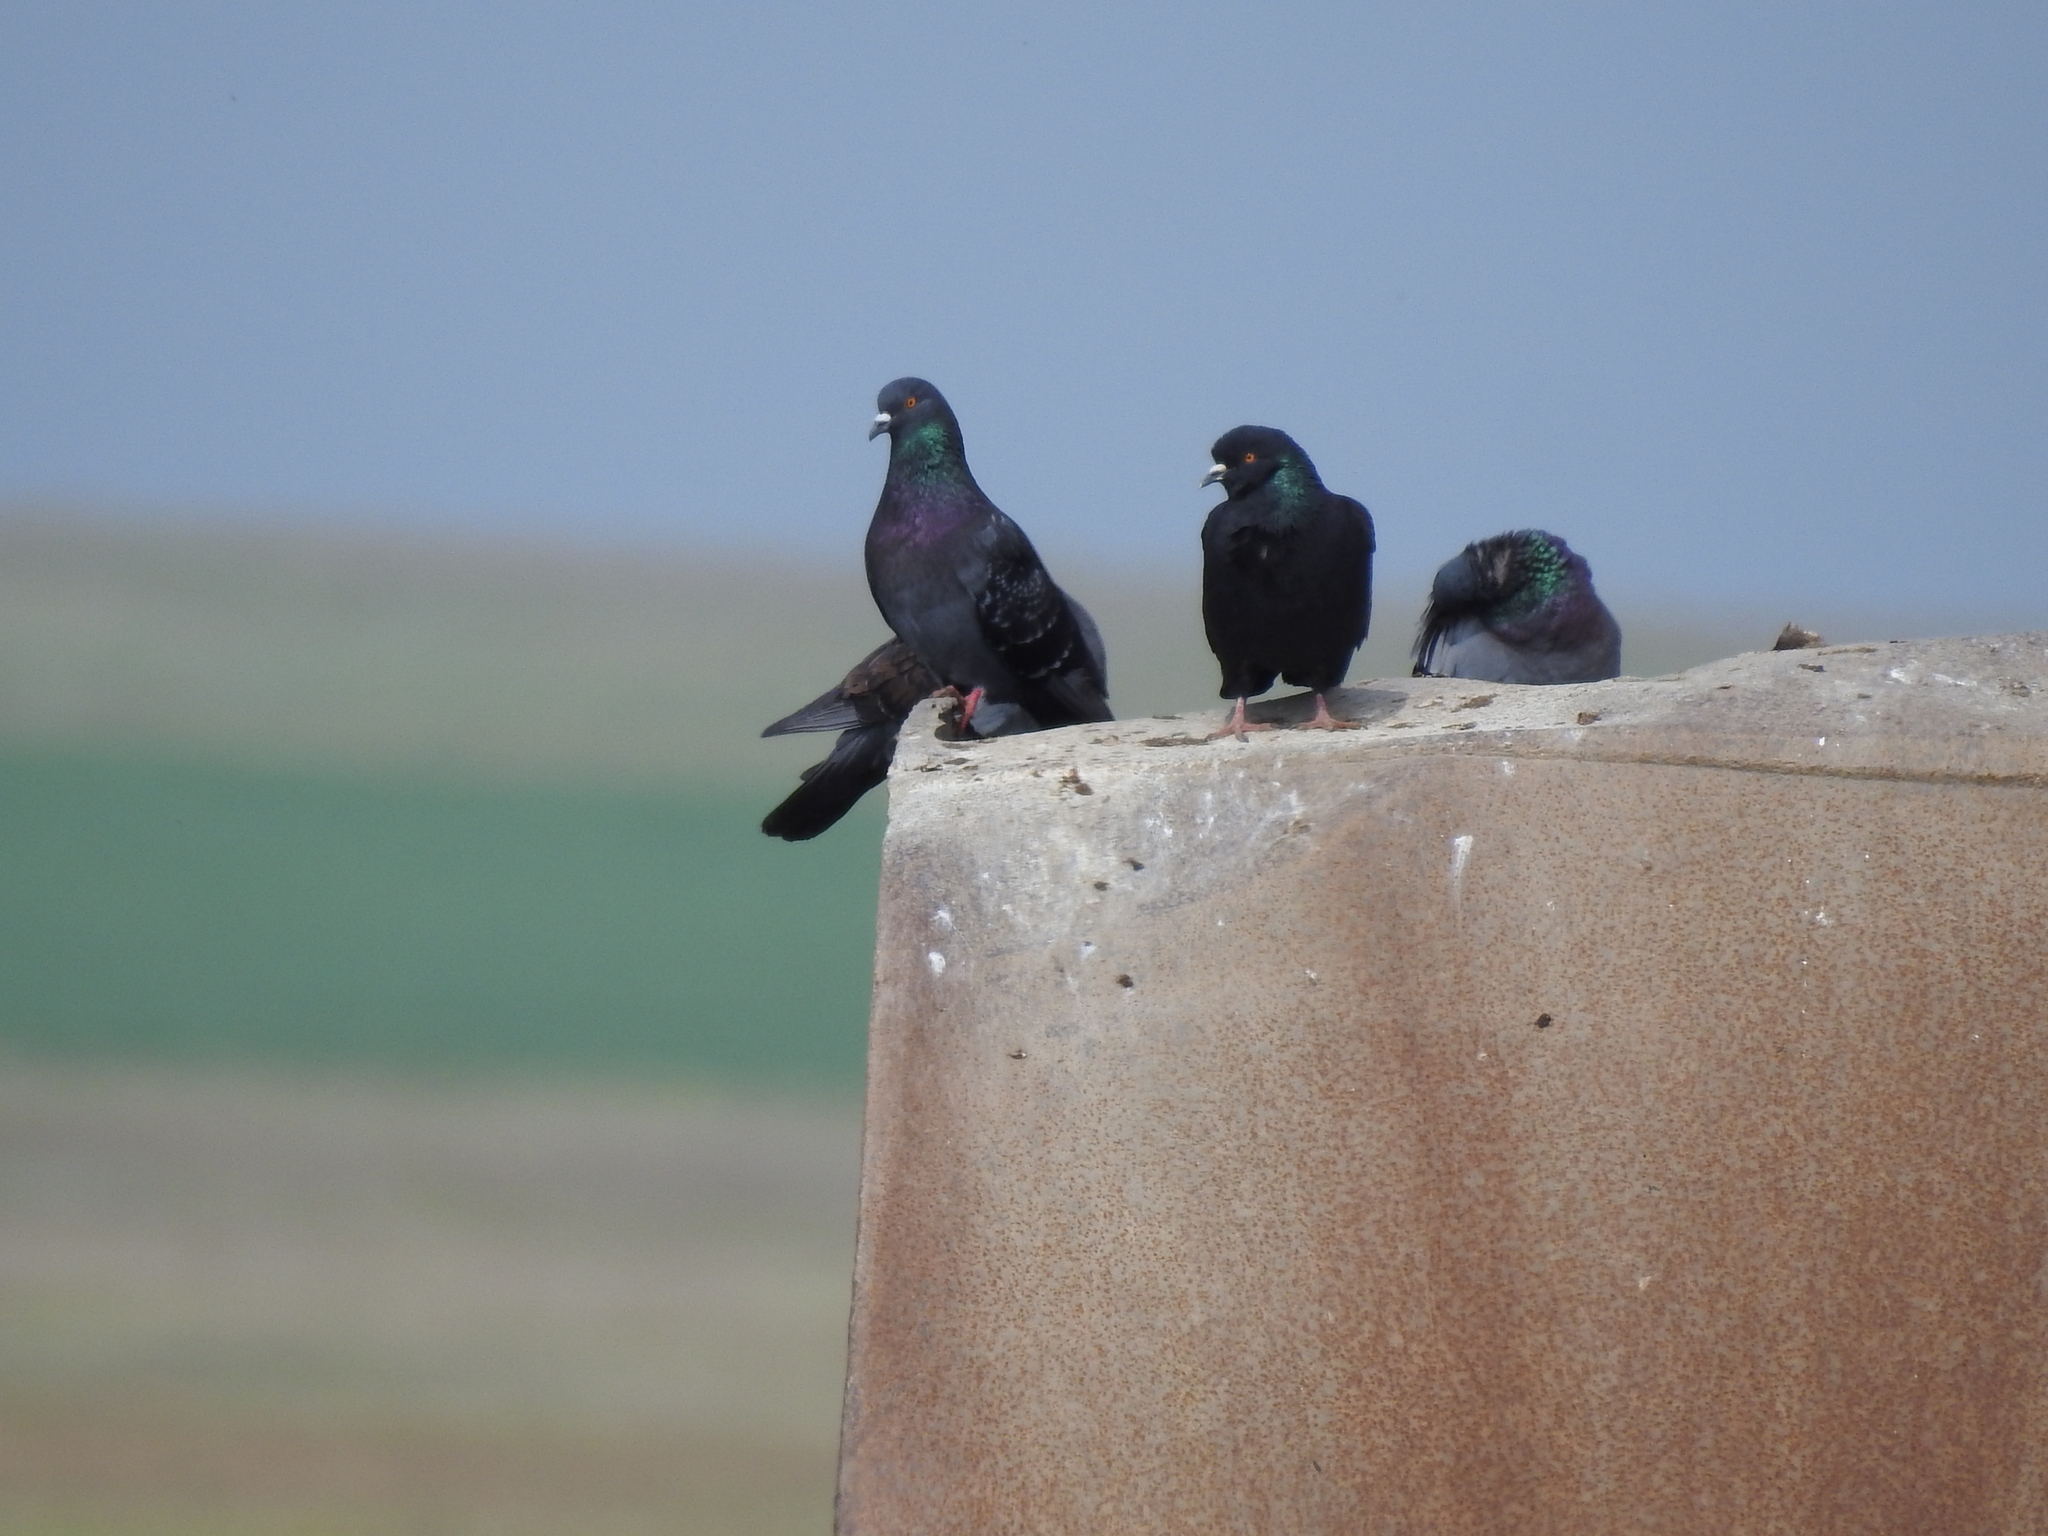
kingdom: Animalia
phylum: Chordata
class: Aves
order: Columbiformes
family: Columbidae
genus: Columba
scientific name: Columba livia
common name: Rock pigeon
